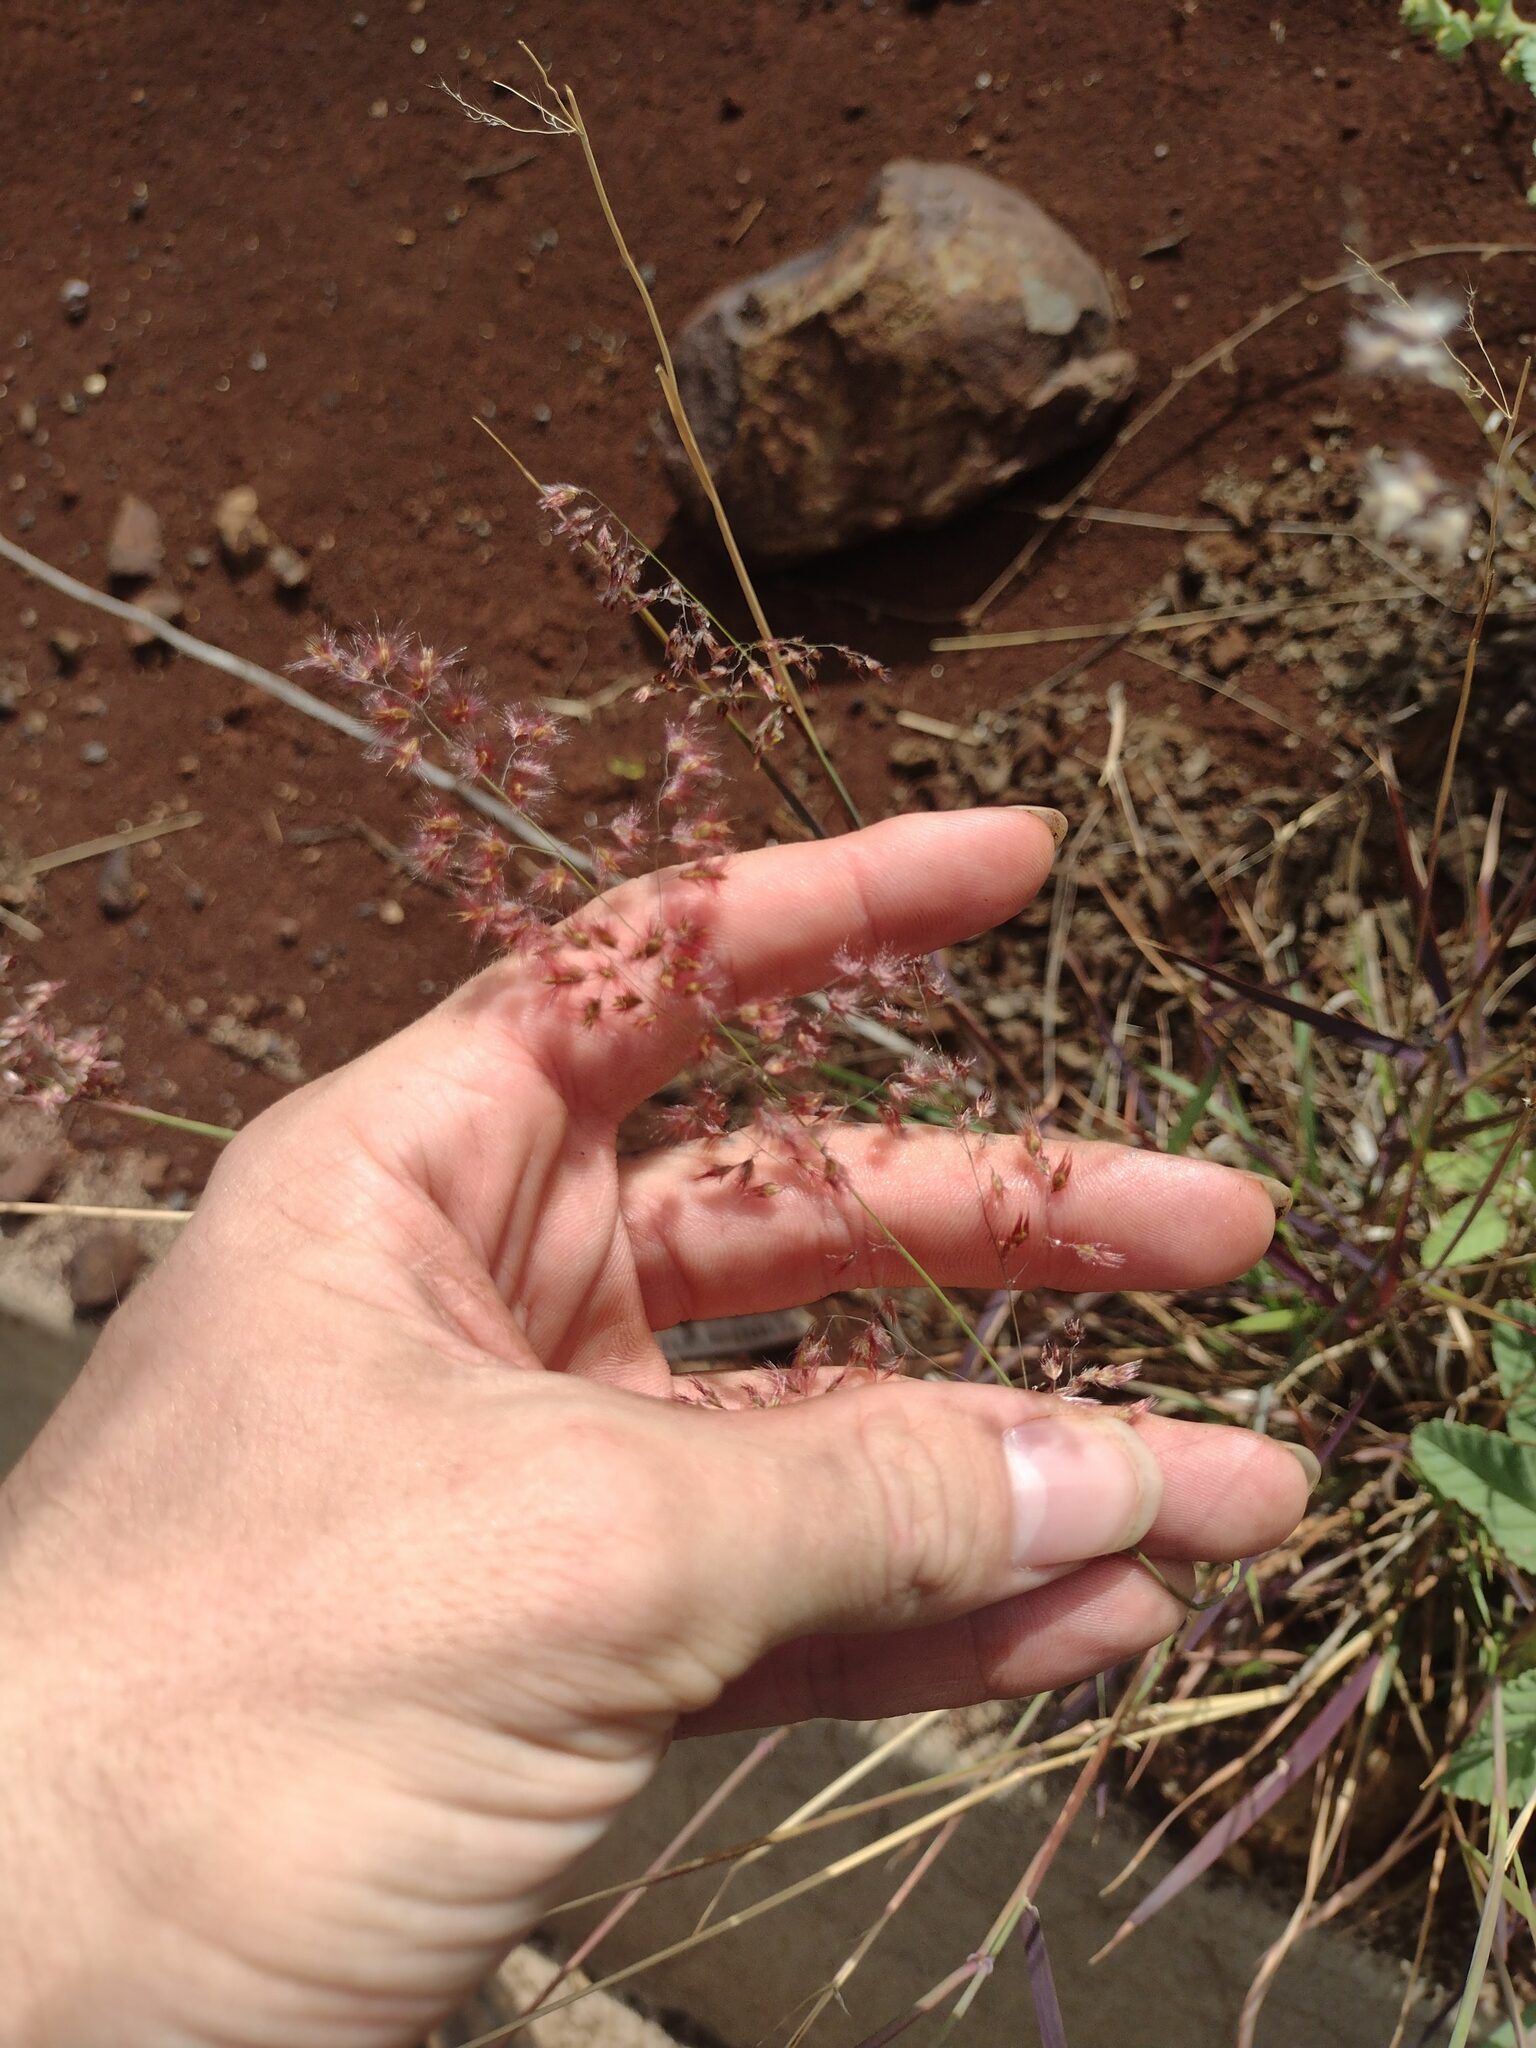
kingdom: Plantae
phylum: Tracheophyta
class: Liliopsida
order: Poales
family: Poaceae
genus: Melinis
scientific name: Melinis repens
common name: Rose natal grass
